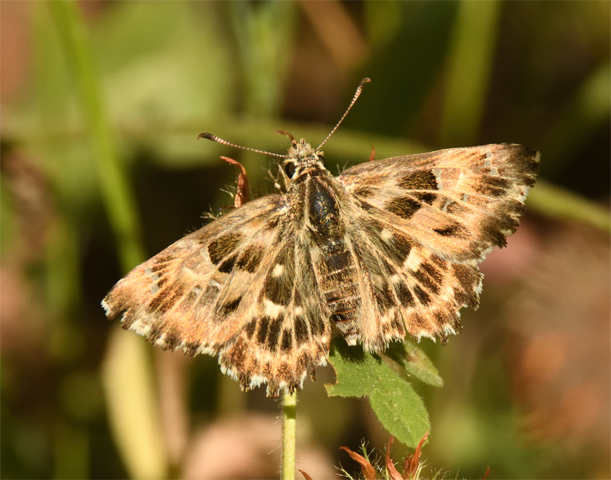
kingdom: Animalia
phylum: Arthropoda
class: Insecta
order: Lepidoptera
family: Hesperiidae
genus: Carcharodus
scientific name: Carcharodus alceae
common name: Mallow skipper
